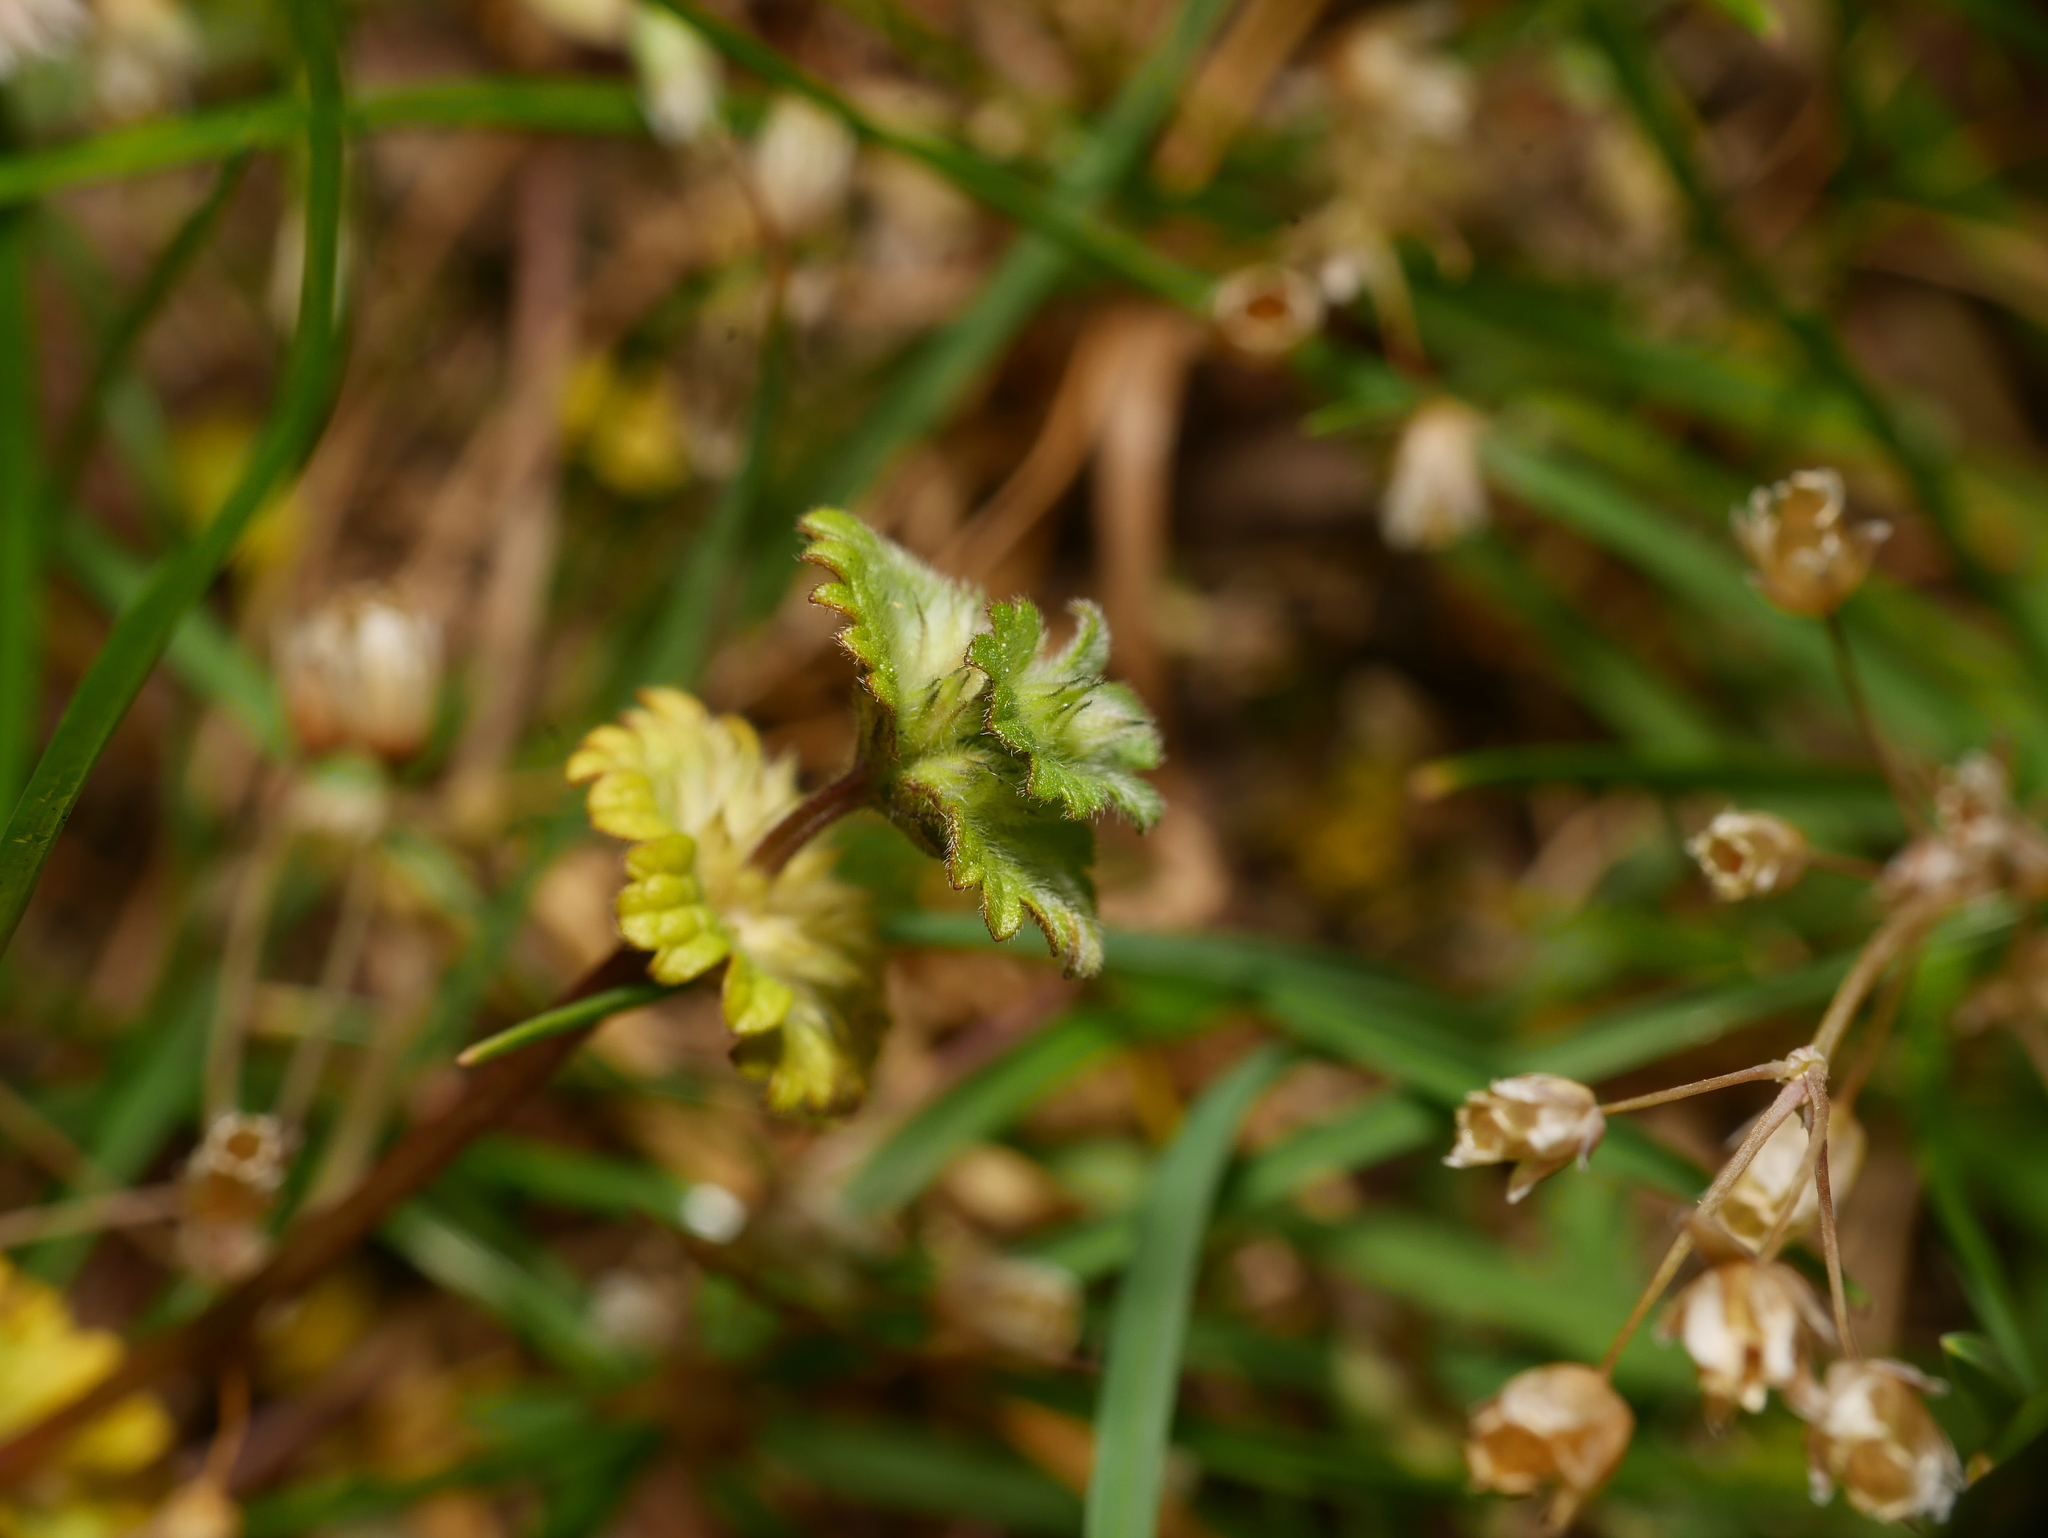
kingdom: Plantae
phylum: Tracheophyta
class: Magnoliopsida
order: Lamiales
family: Lamiaceae
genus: Lamium
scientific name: Lamium amplexicaule
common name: Henbit dead-nettle
